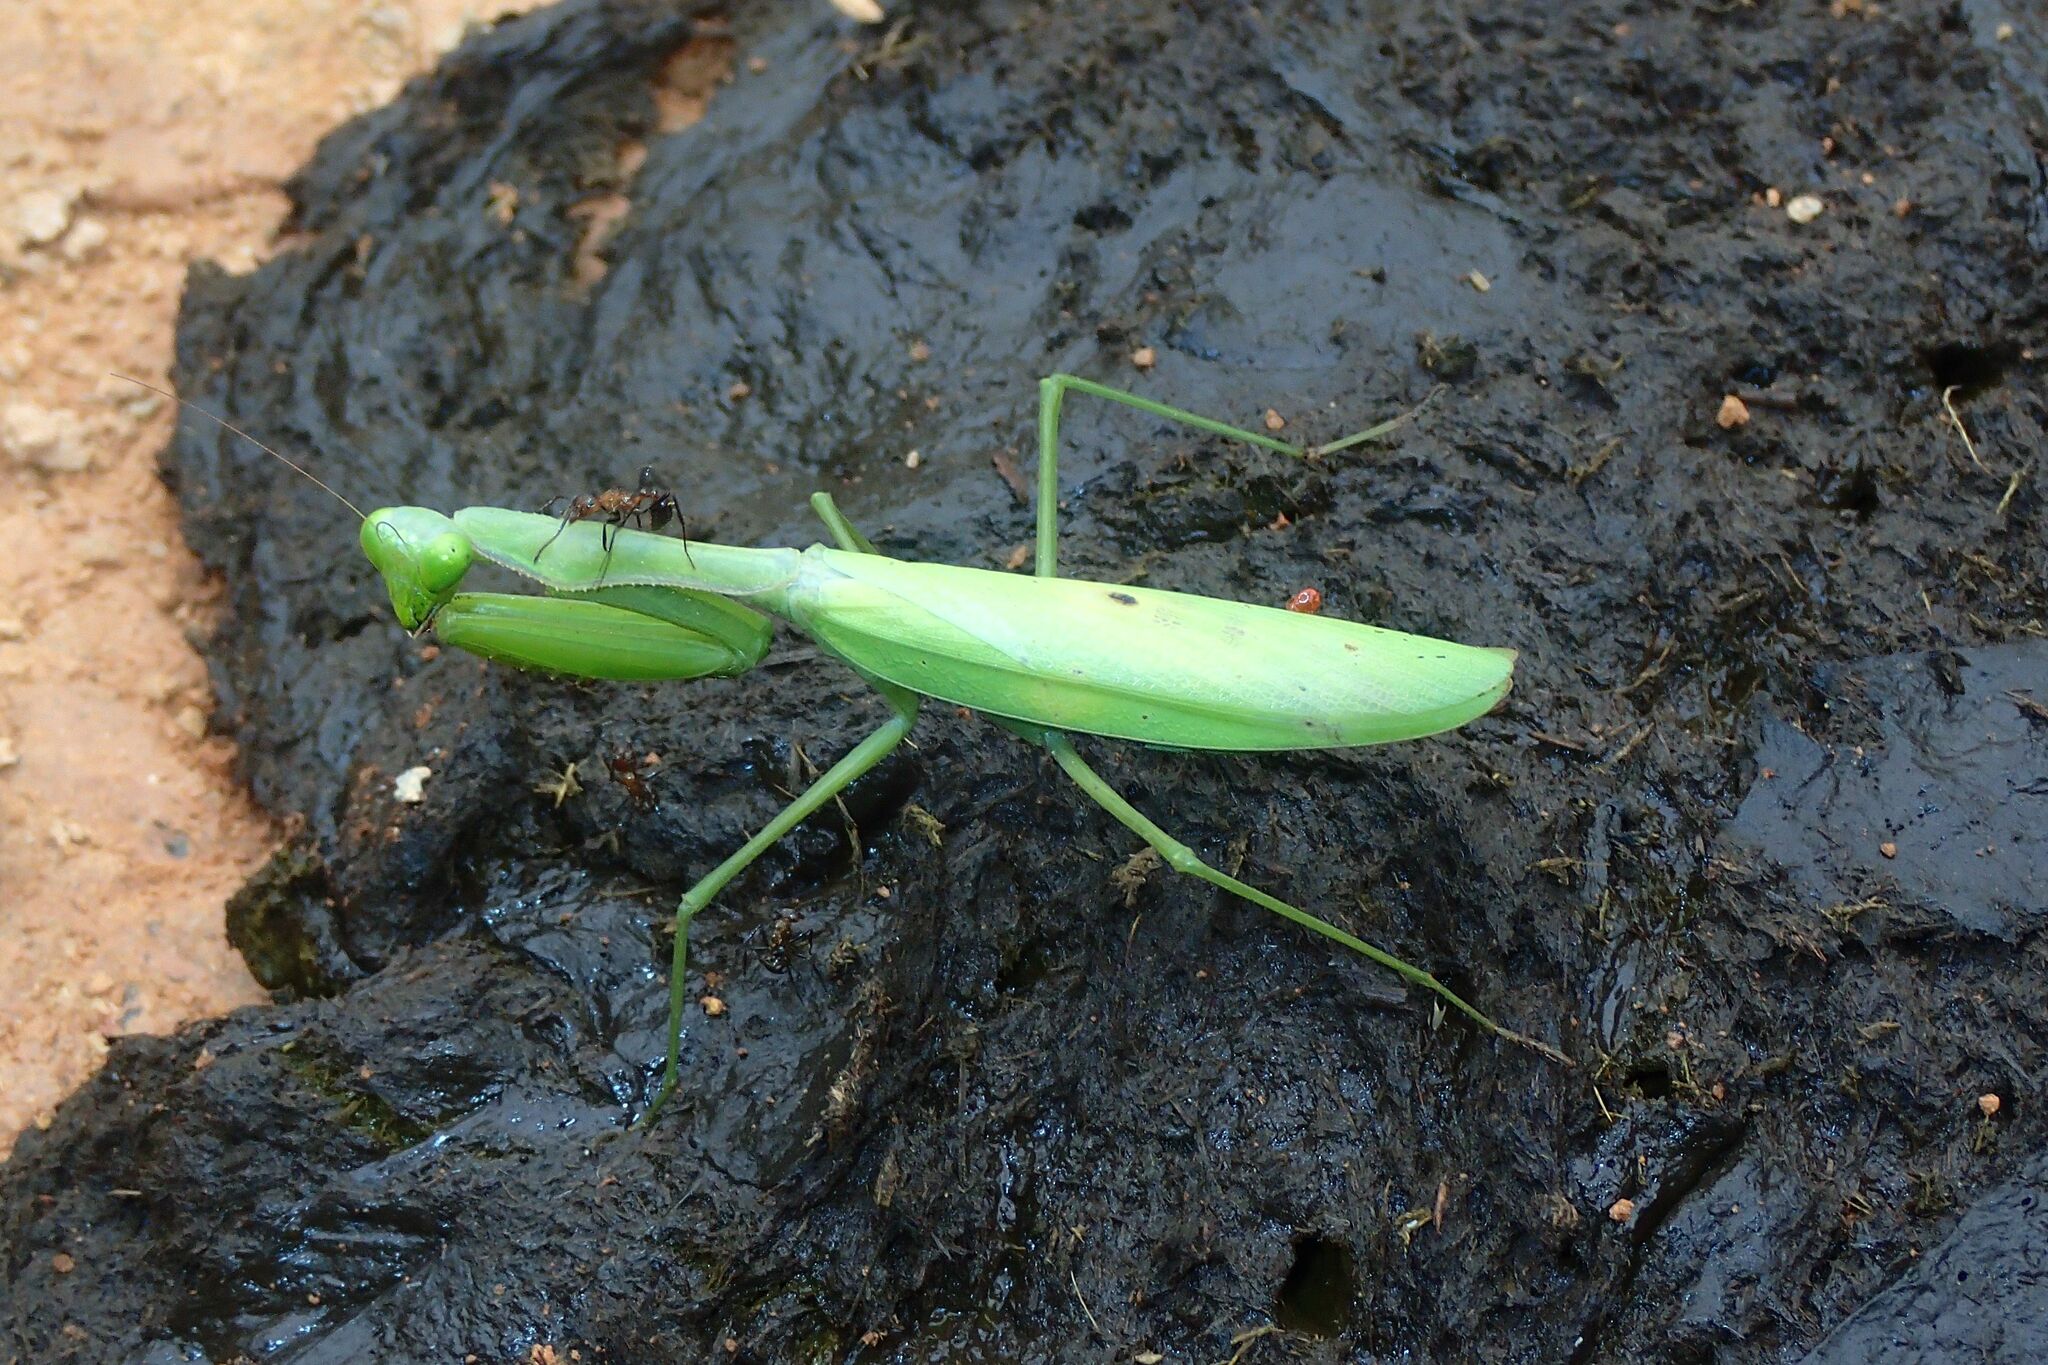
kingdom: Animalia
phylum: Arthropoda
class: Insecta
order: Mantodea
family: Mantidae
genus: Alalomantis
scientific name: Alalomantis muta
